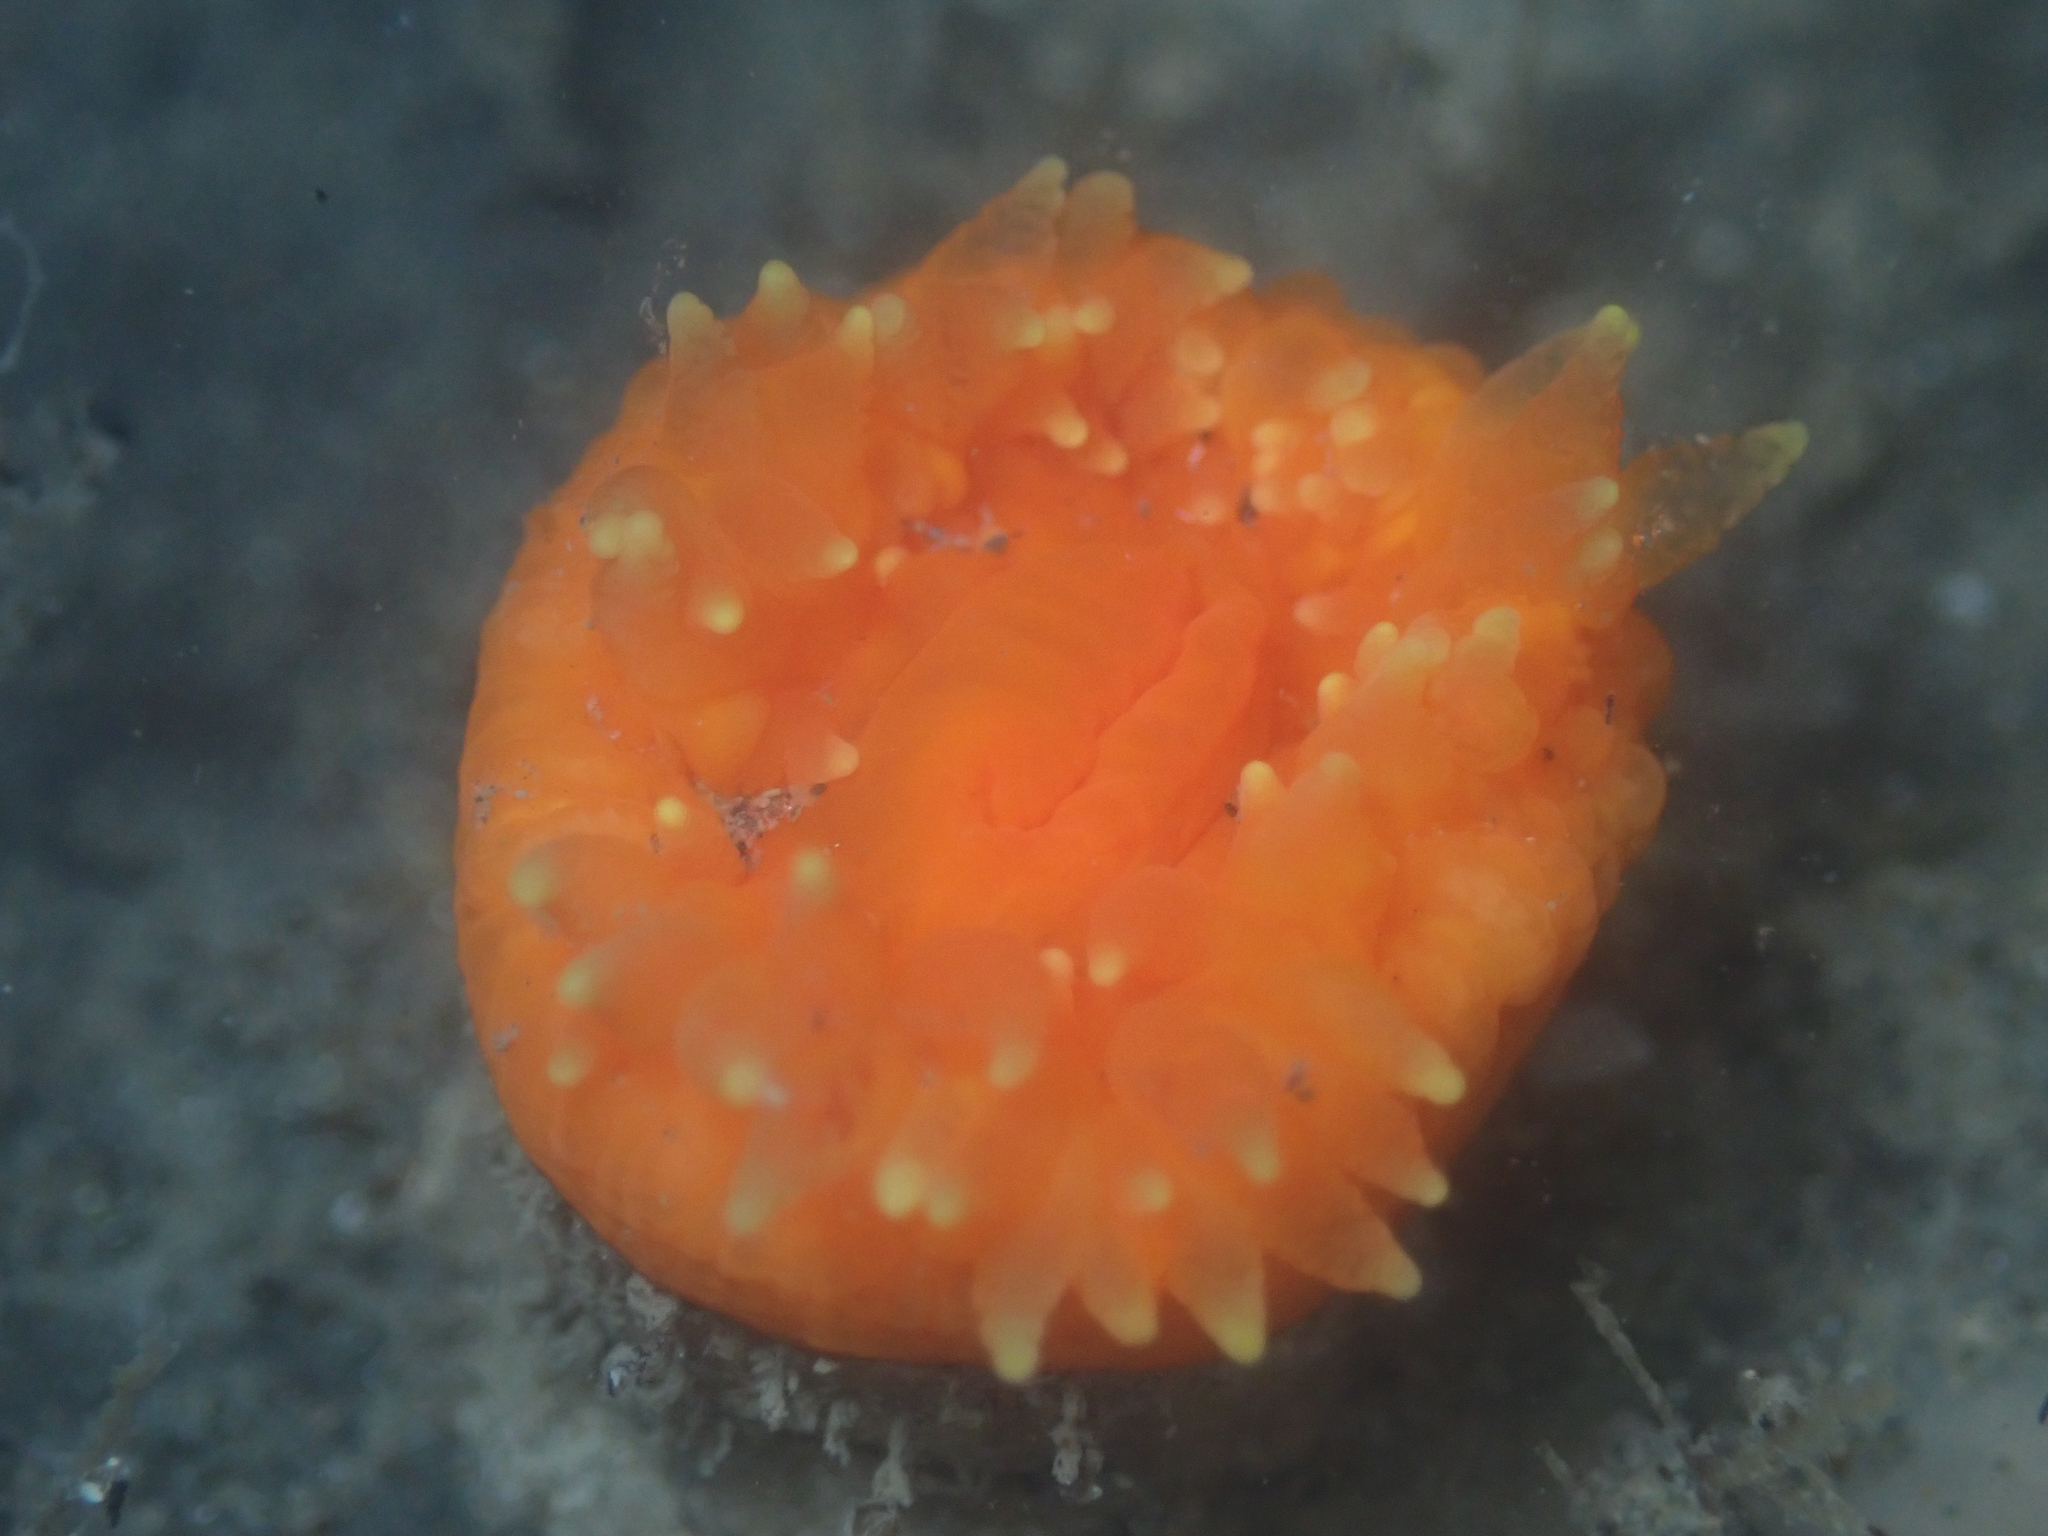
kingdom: Animalia
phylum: Cnidaria
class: Anthozoa
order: Scleractinia
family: Dendrophylliidae
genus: Balanophyllia
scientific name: Balanophyllia elegans
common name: Orange stony coral
